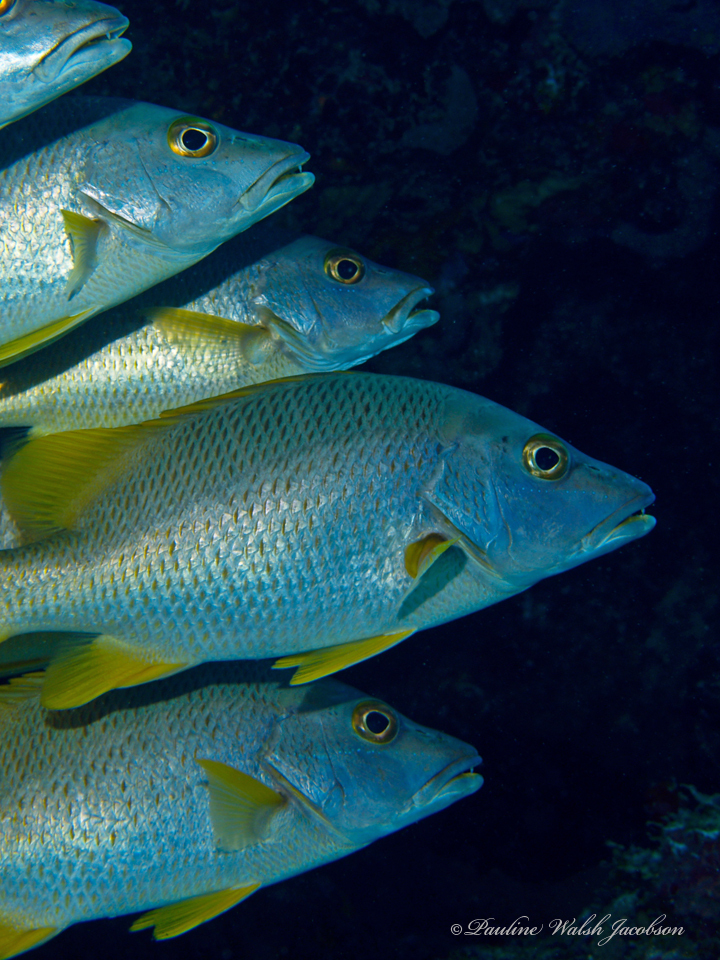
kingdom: Animalia
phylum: Chordata
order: Perciformes
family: Lutjanidae
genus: Lutjanus
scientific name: Lutjanus apodus
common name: Schoolmaster
